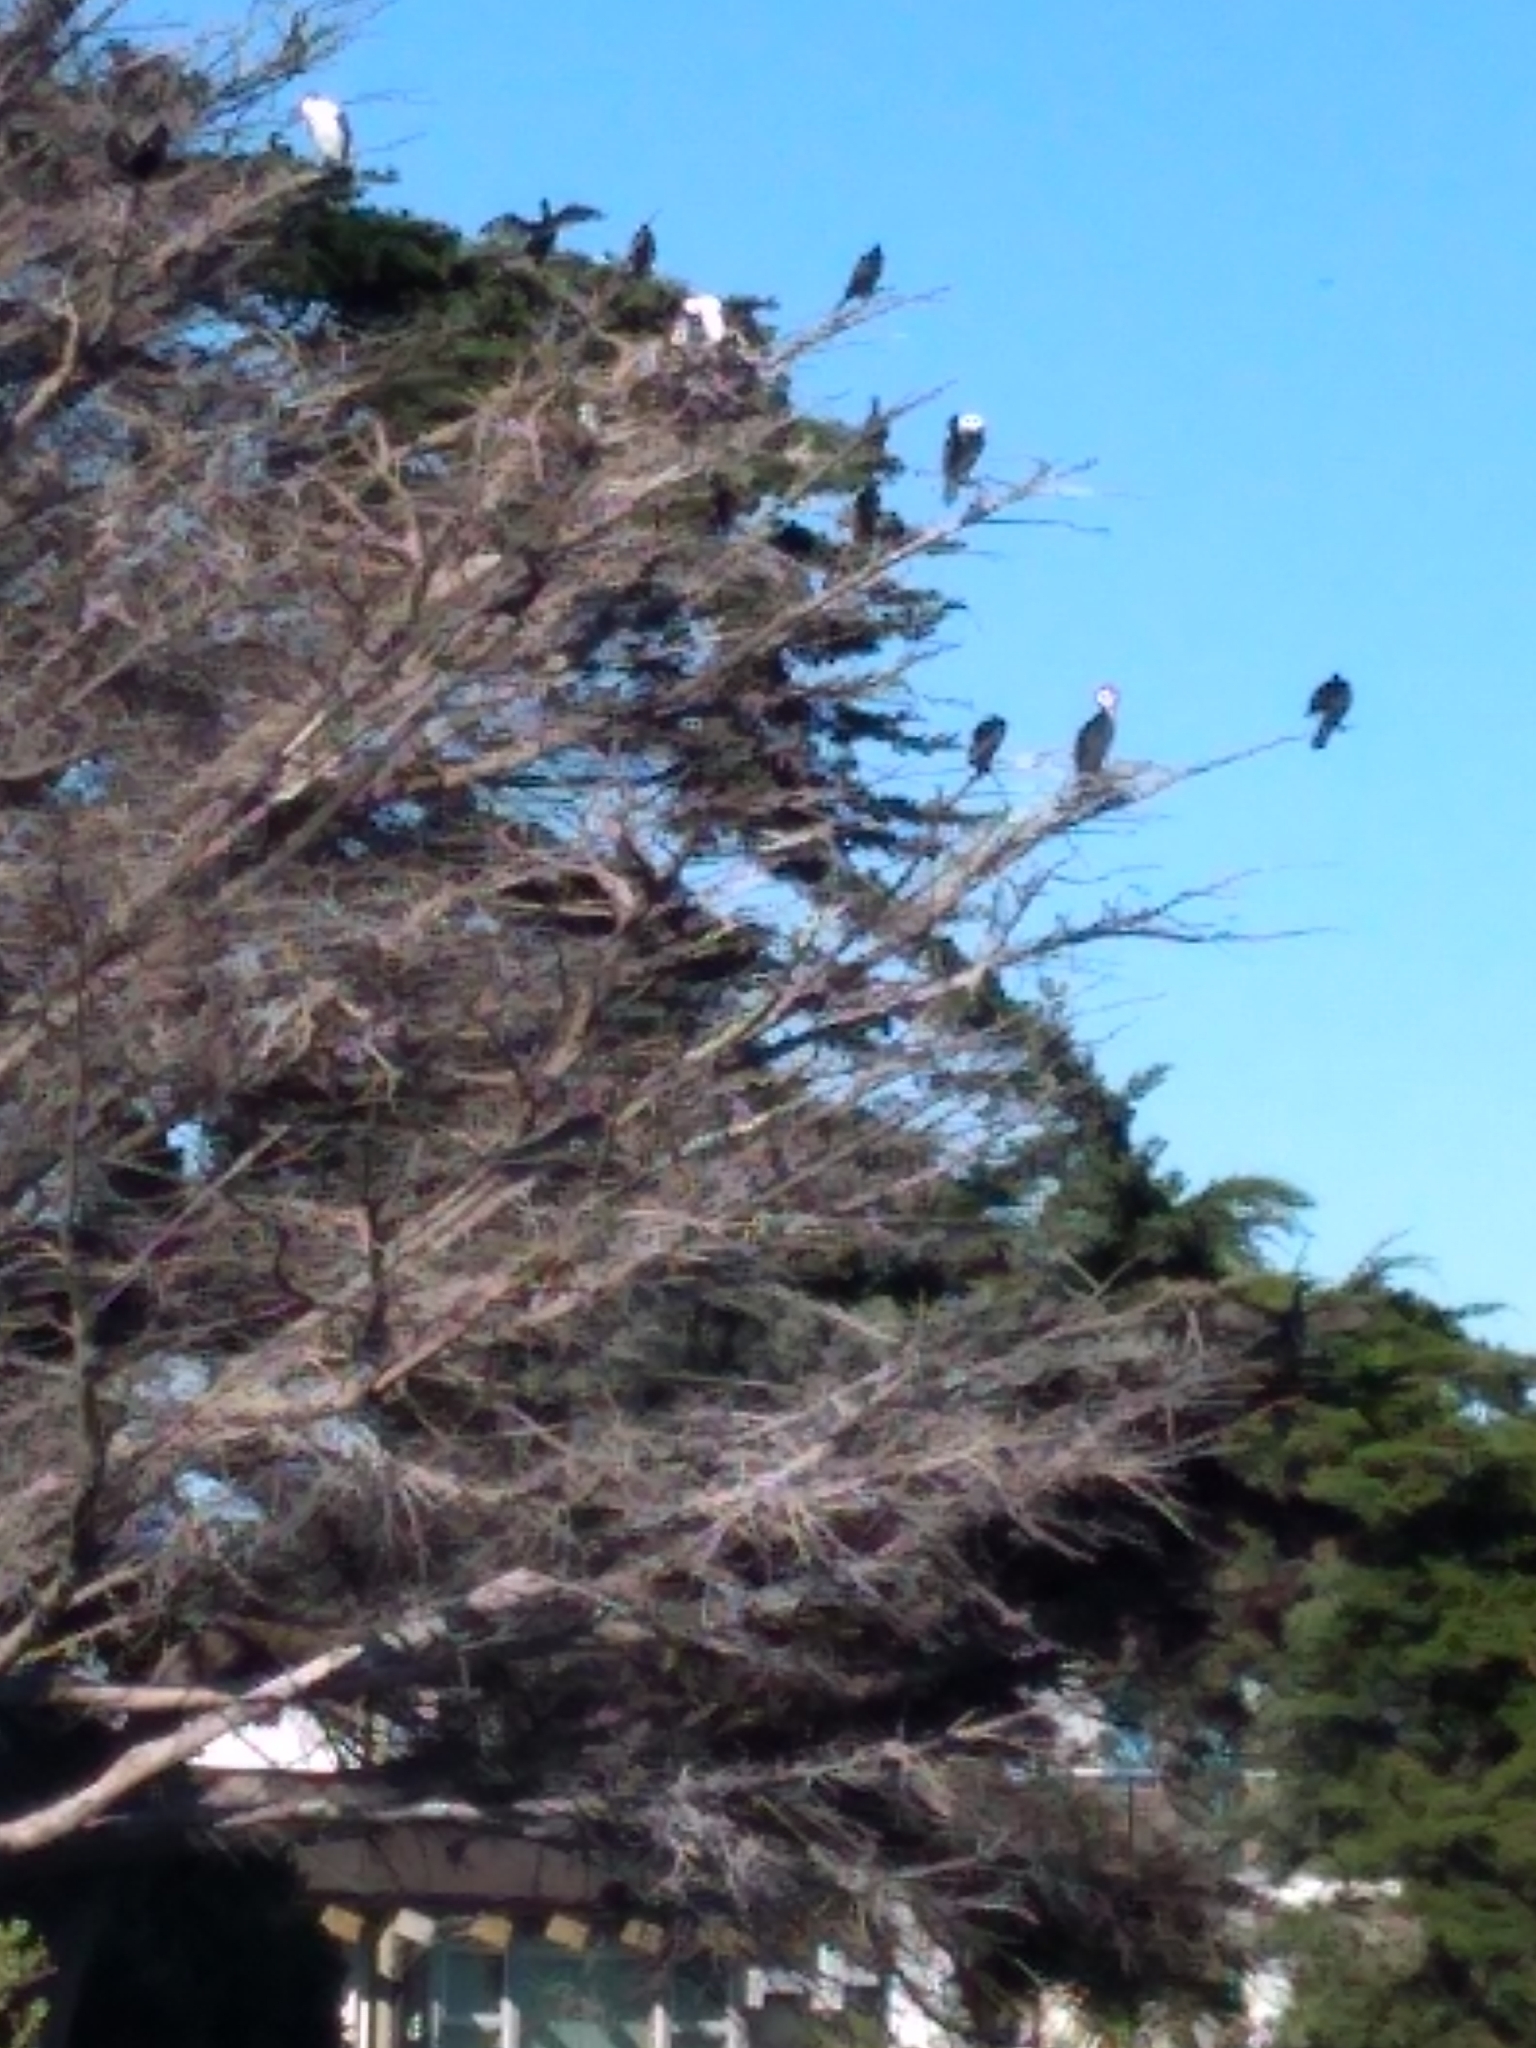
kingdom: Animalia
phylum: Chordata
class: Aves
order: Suliformes
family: Phalacrocoracidae
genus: Phalacrocorax
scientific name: Phalacrocorax varius
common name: Pied cormorant
